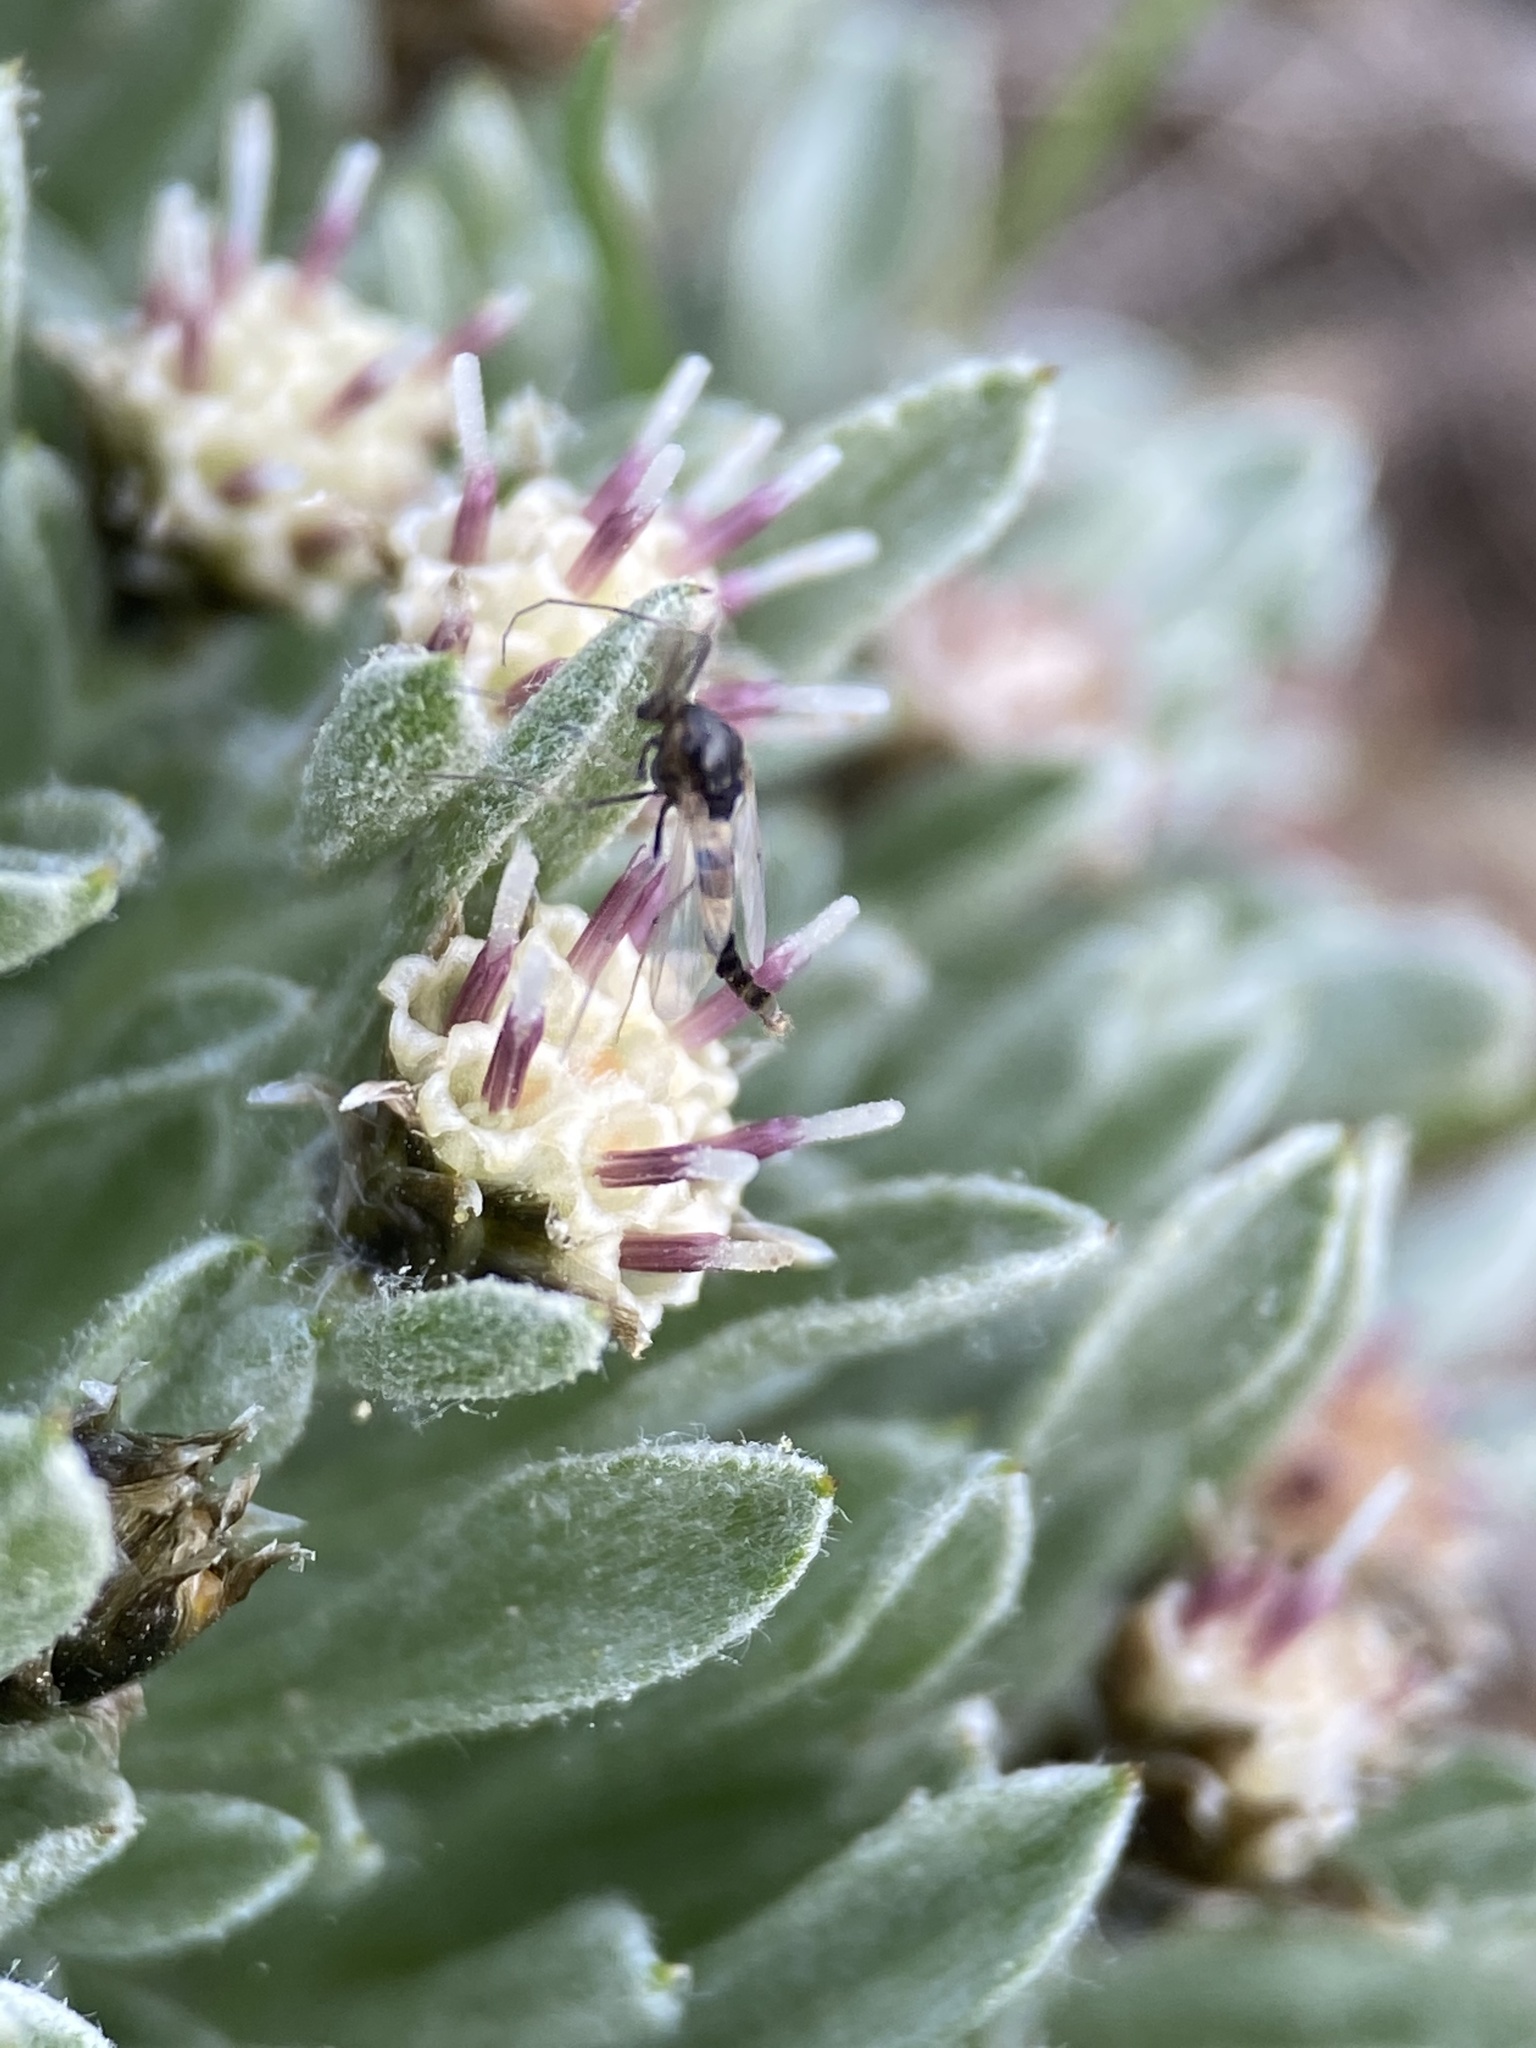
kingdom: Plantae
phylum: Tracheophyta
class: Magnoliopsida
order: Asterales
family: Asteraceae
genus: Antennaria
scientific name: Antennaria dimorpha
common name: Cushion pussytoes
